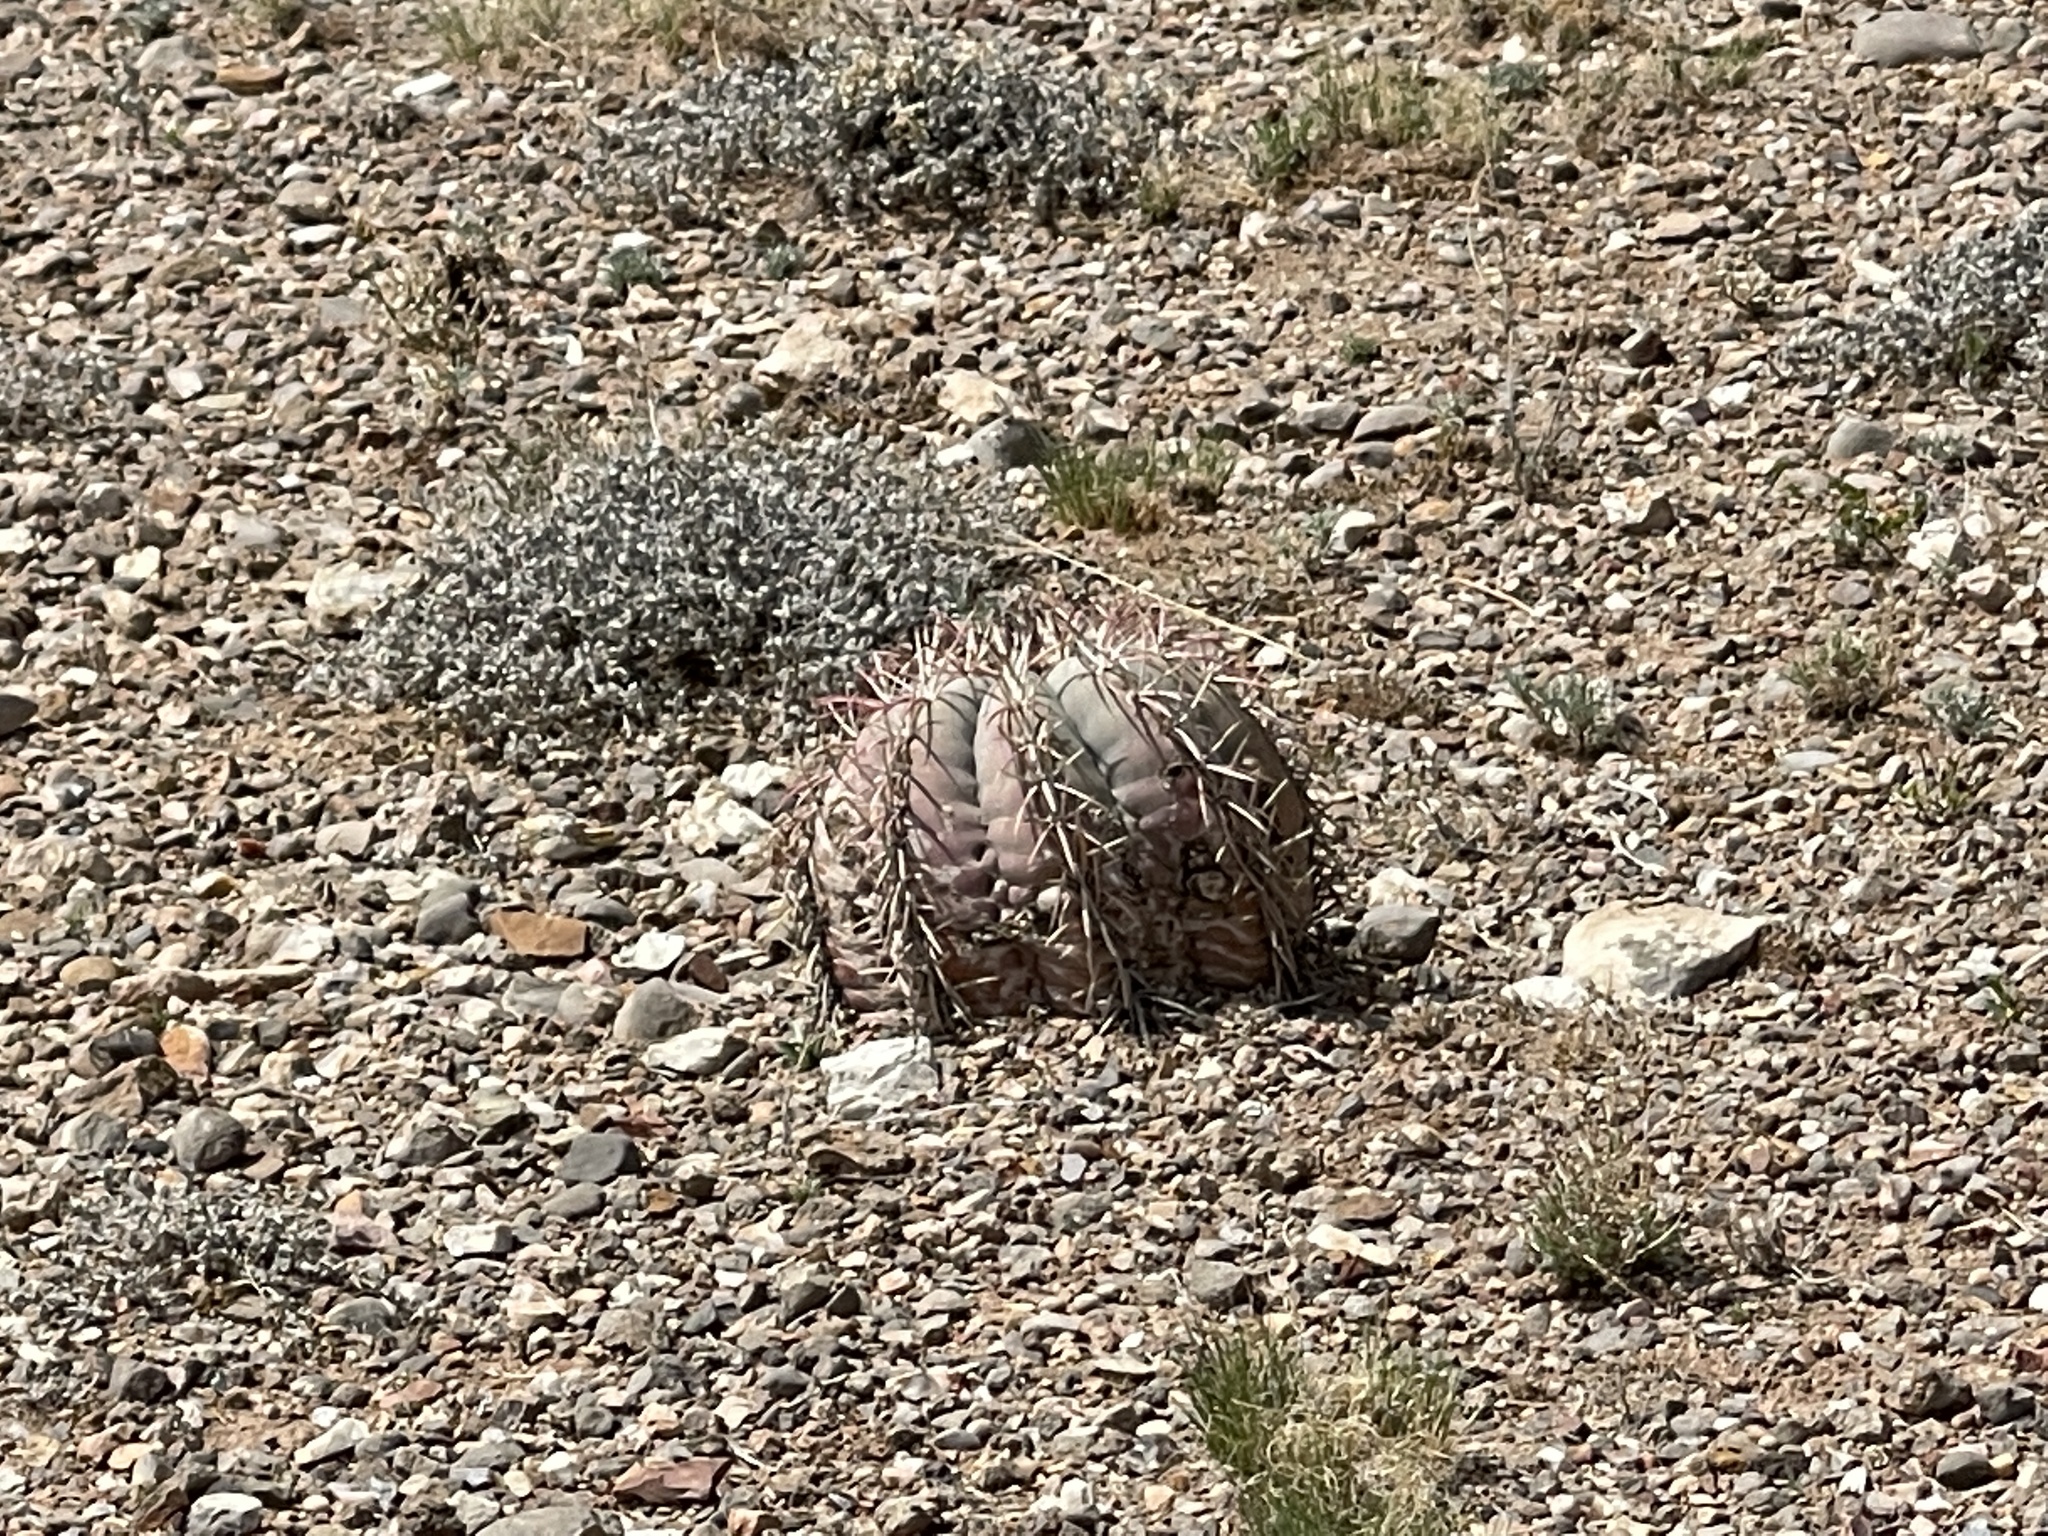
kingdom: Plantae
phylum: Tracheophyta
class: Magnoliopsida
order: Caryophyllales
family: Cactaceae
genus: Echinocactus
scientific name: Echinocactus horizonthalonius
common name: Devilshead
